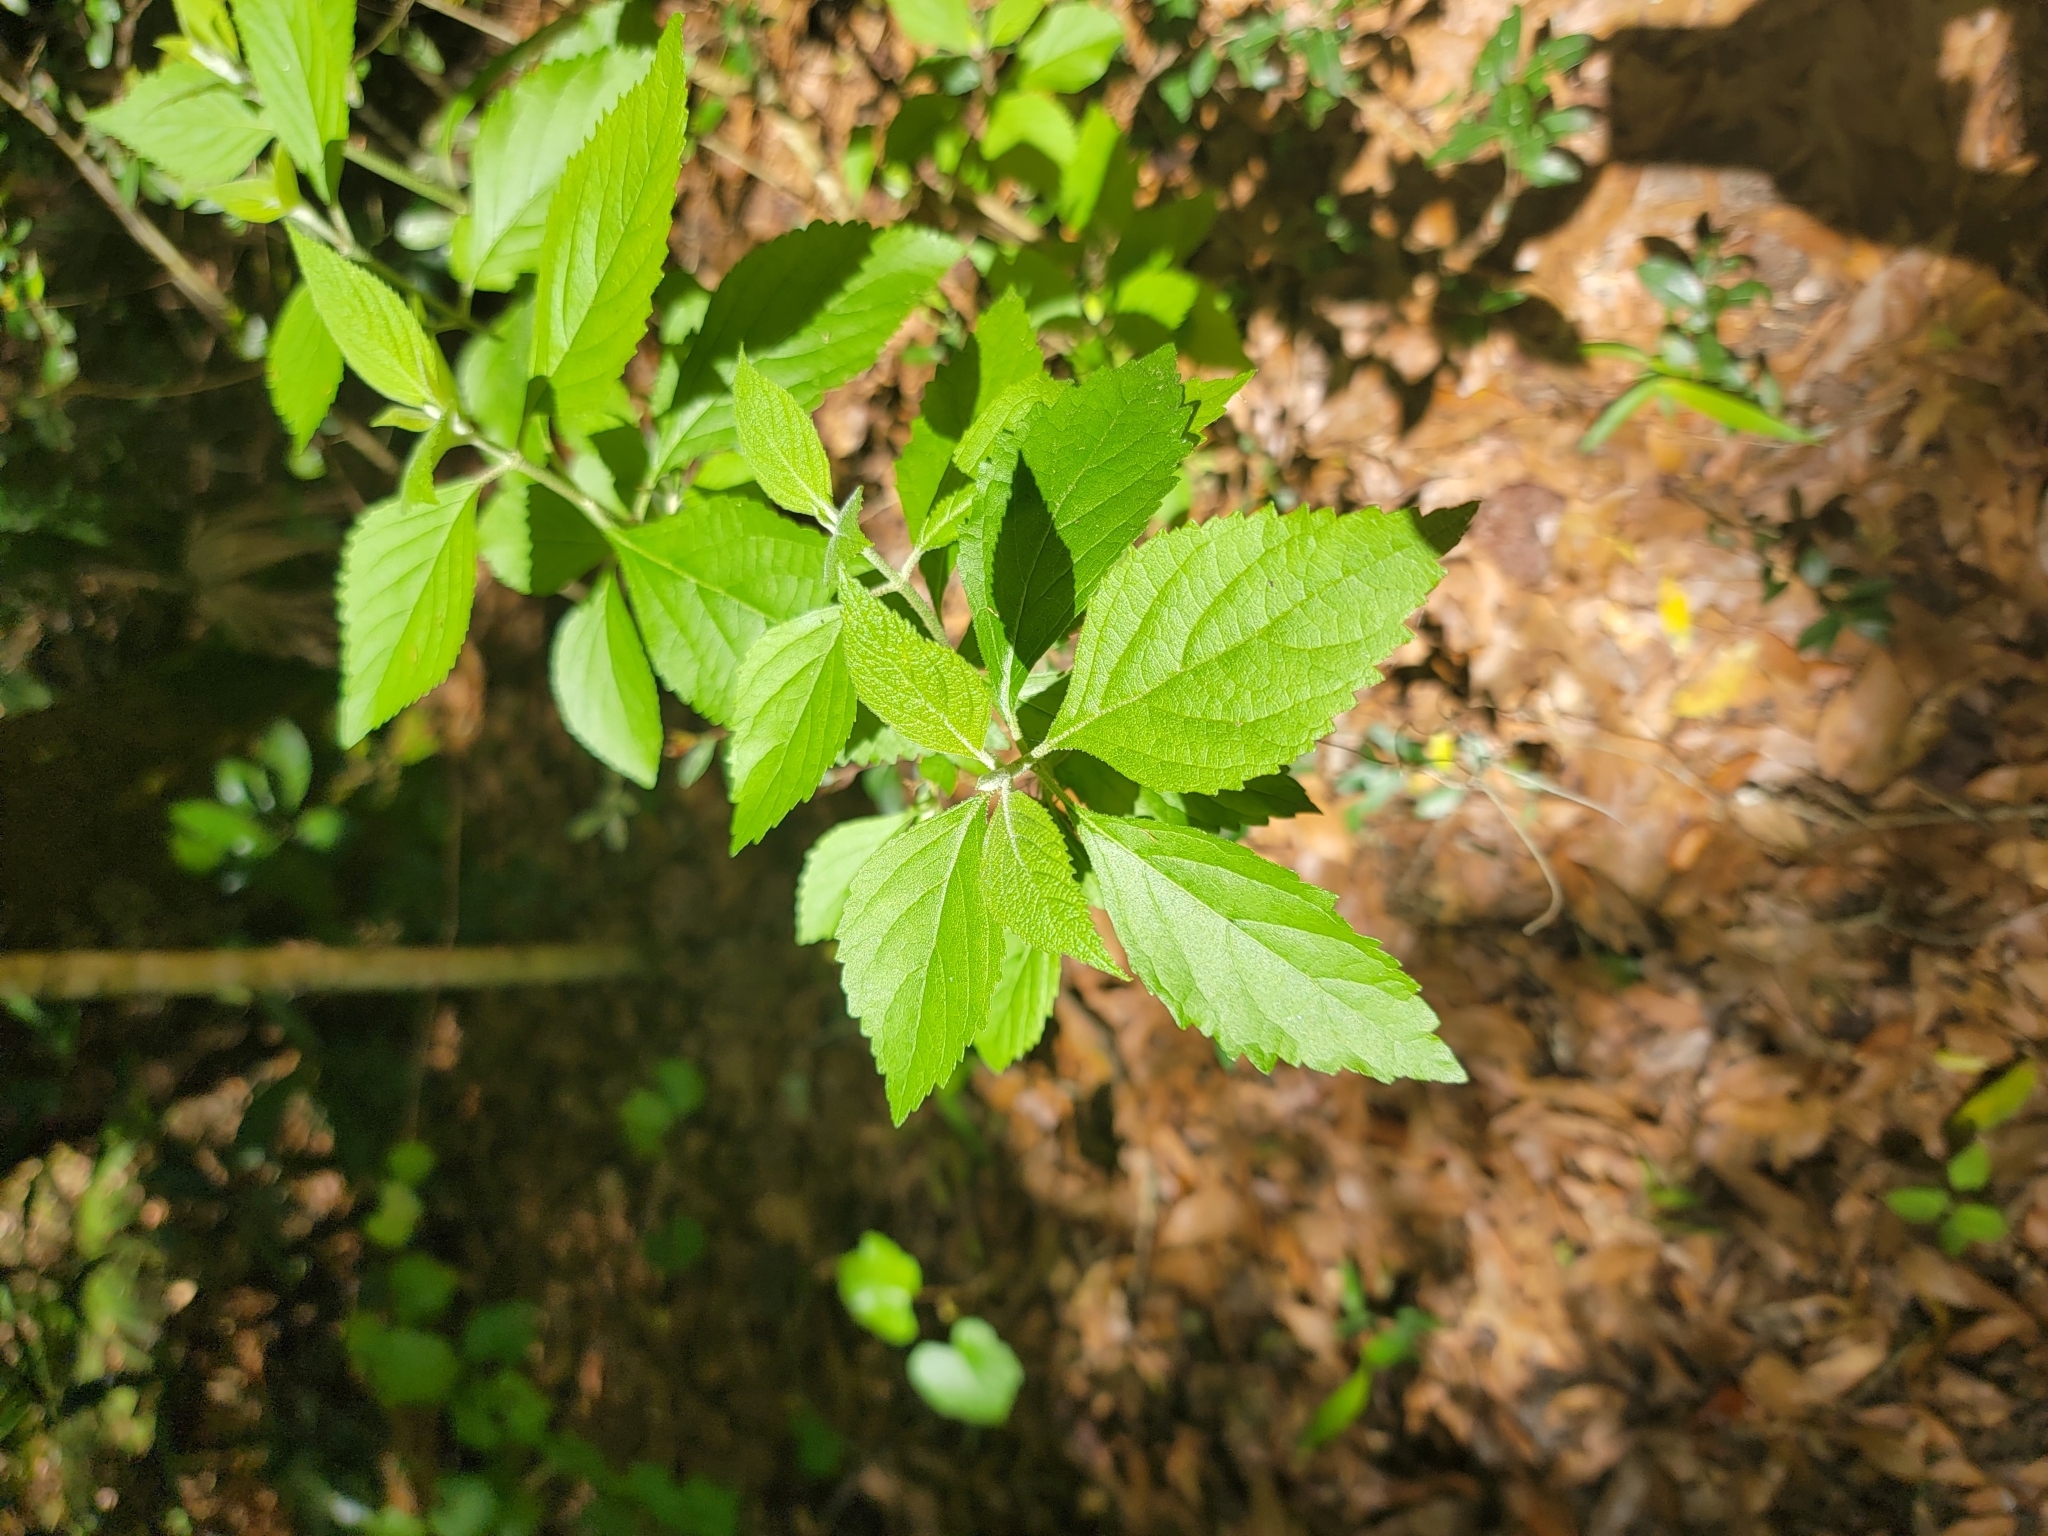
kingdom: Plantae
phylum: Tracheophyta
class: Magnoliopsida
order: Lamiales
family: Lamiaceae
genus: Callicarpa
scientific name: Callicarpa americana
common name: American beautyberry
